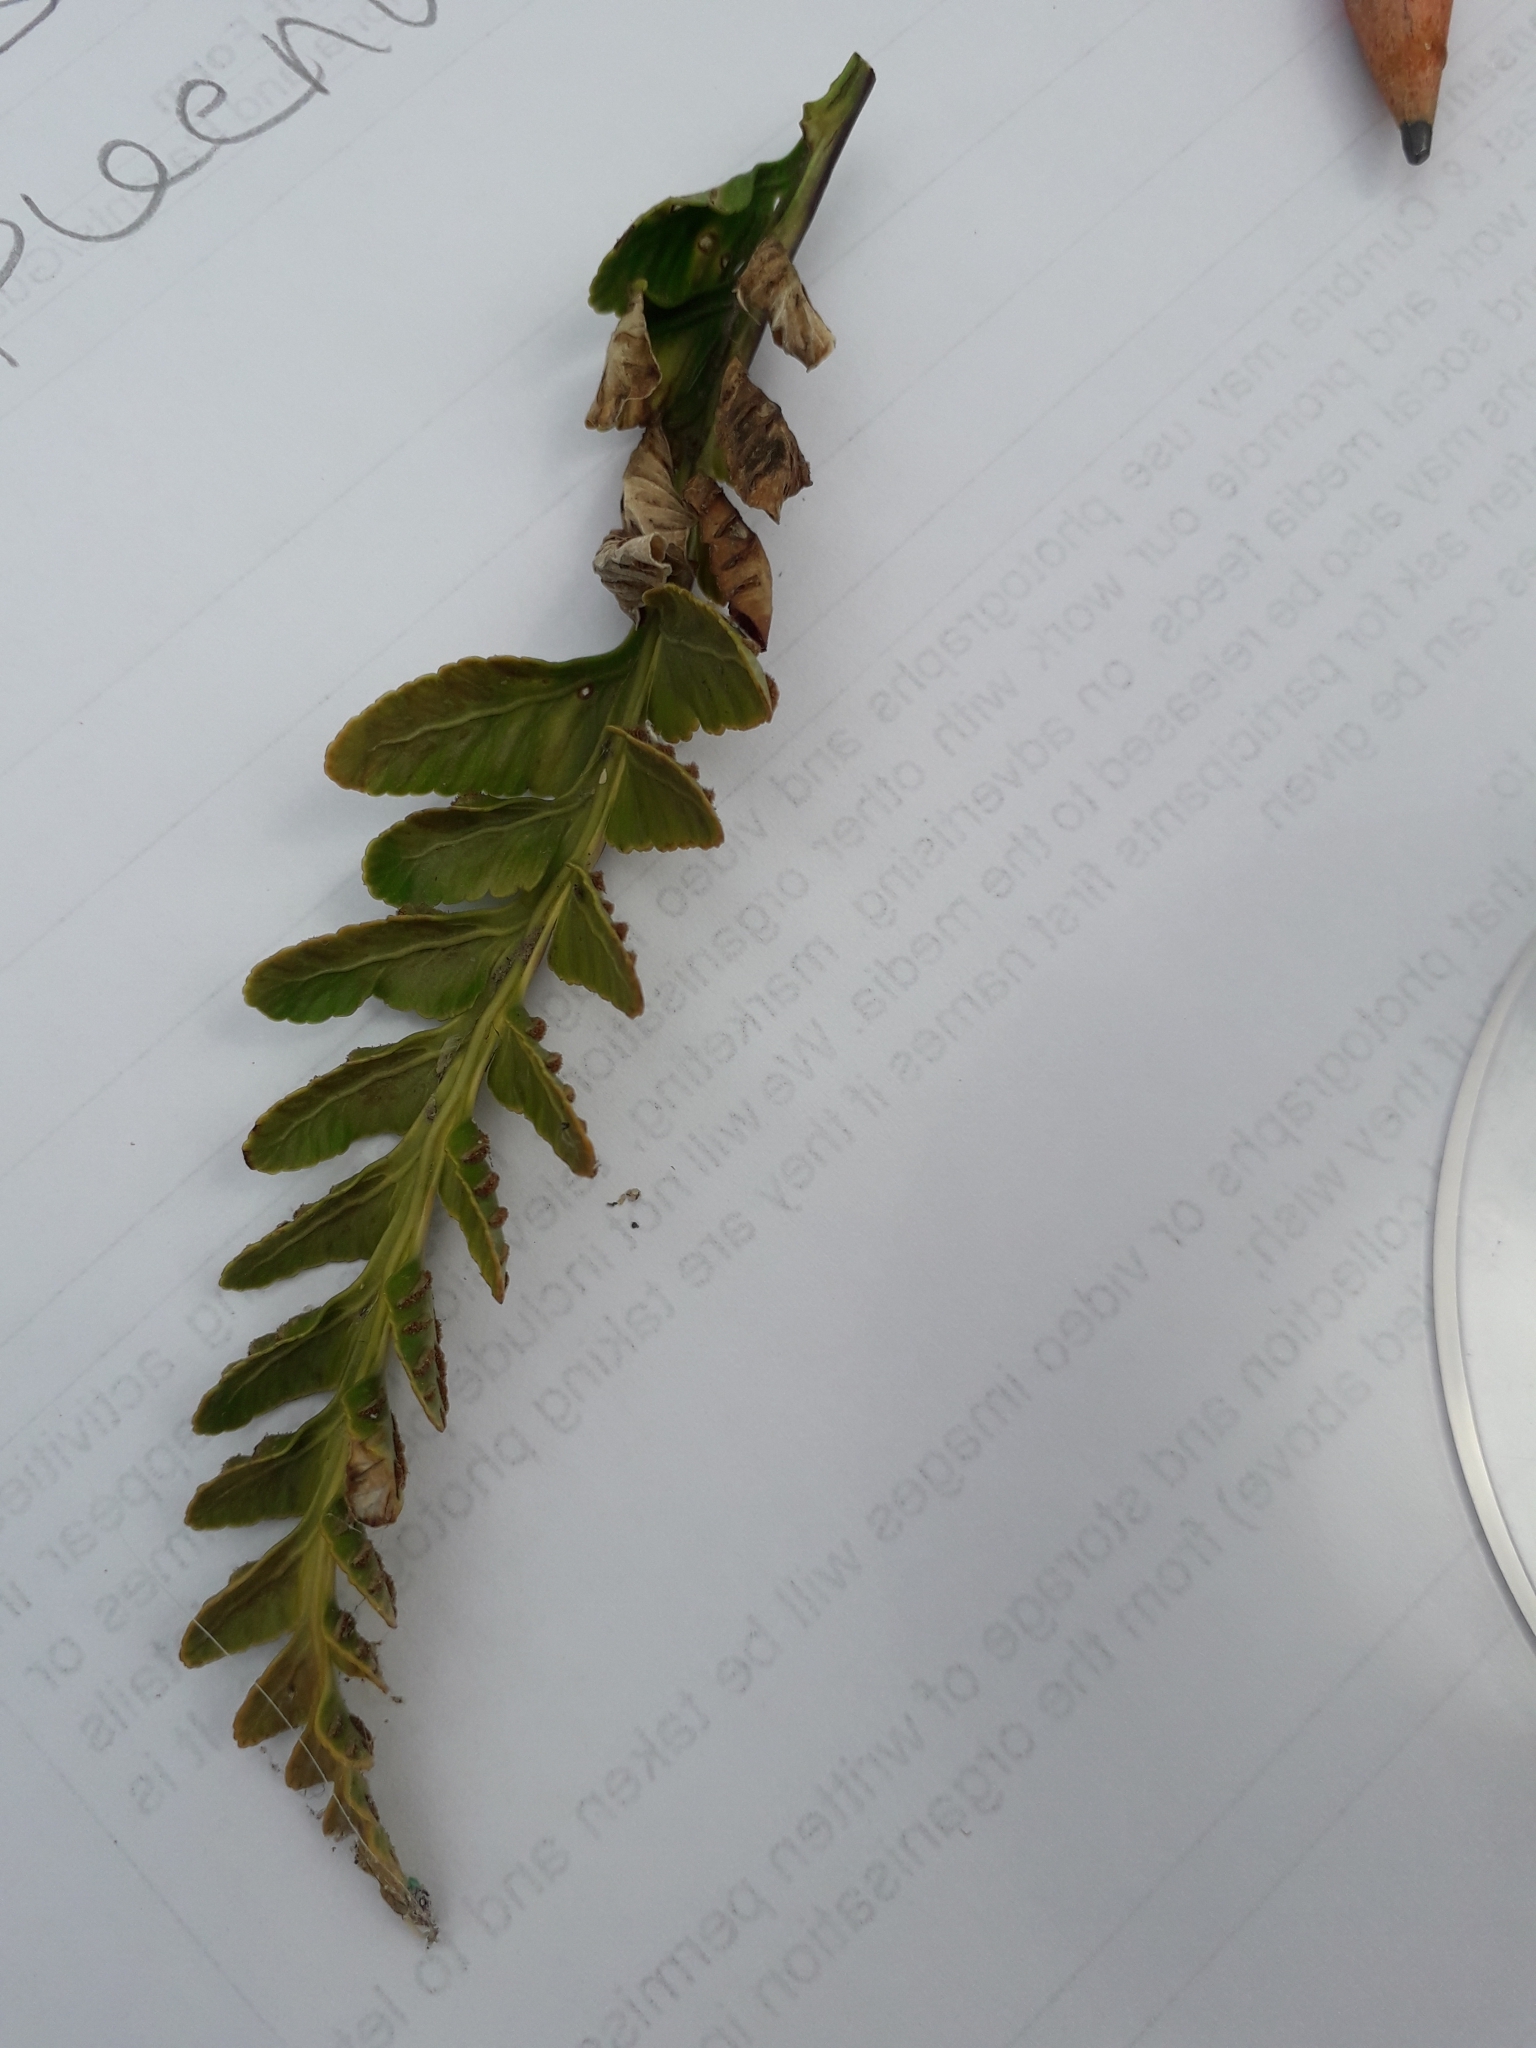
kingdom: Plantae
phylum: Tracheophyta
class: Polypodiopsida
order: Polypodiales
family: Aspleniaceae
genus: Asplenium
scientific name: Asplenium marinum
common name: Sea spleenwort
